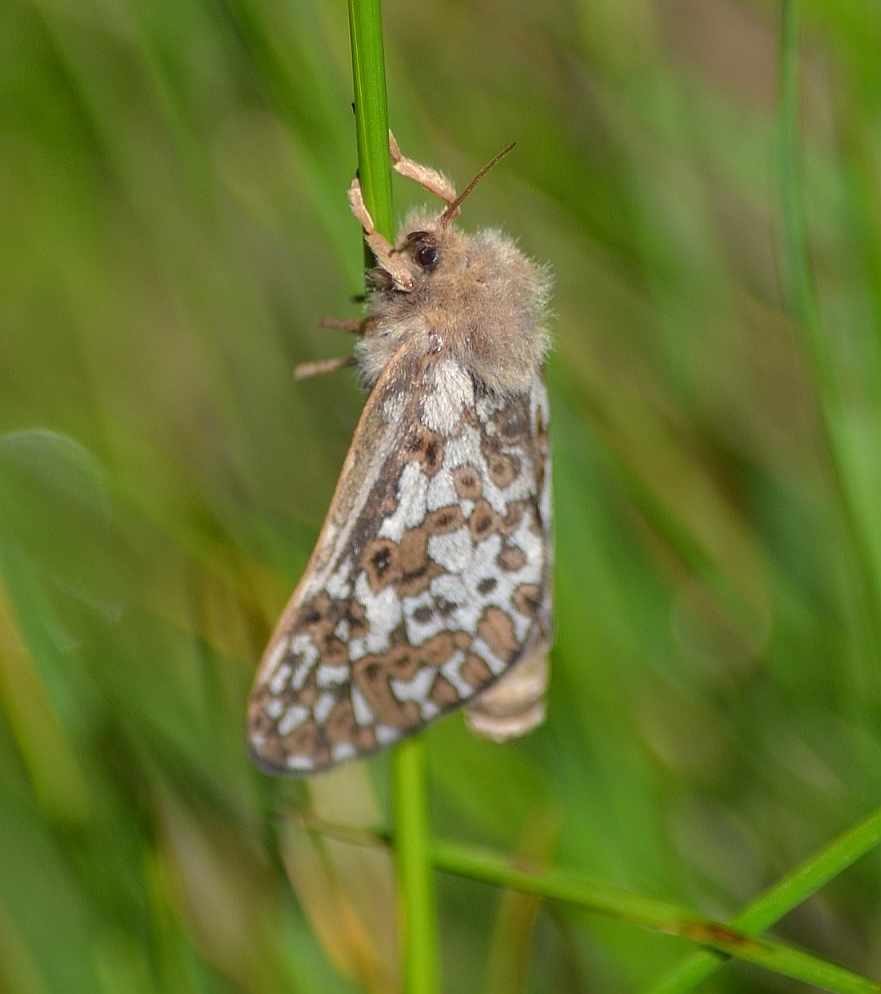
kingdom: Animalia
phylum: Arthropoda
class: Insecta
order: Lepidoptera
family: Hepialidae
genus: Pharmacis
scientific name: Pharmacis carna
